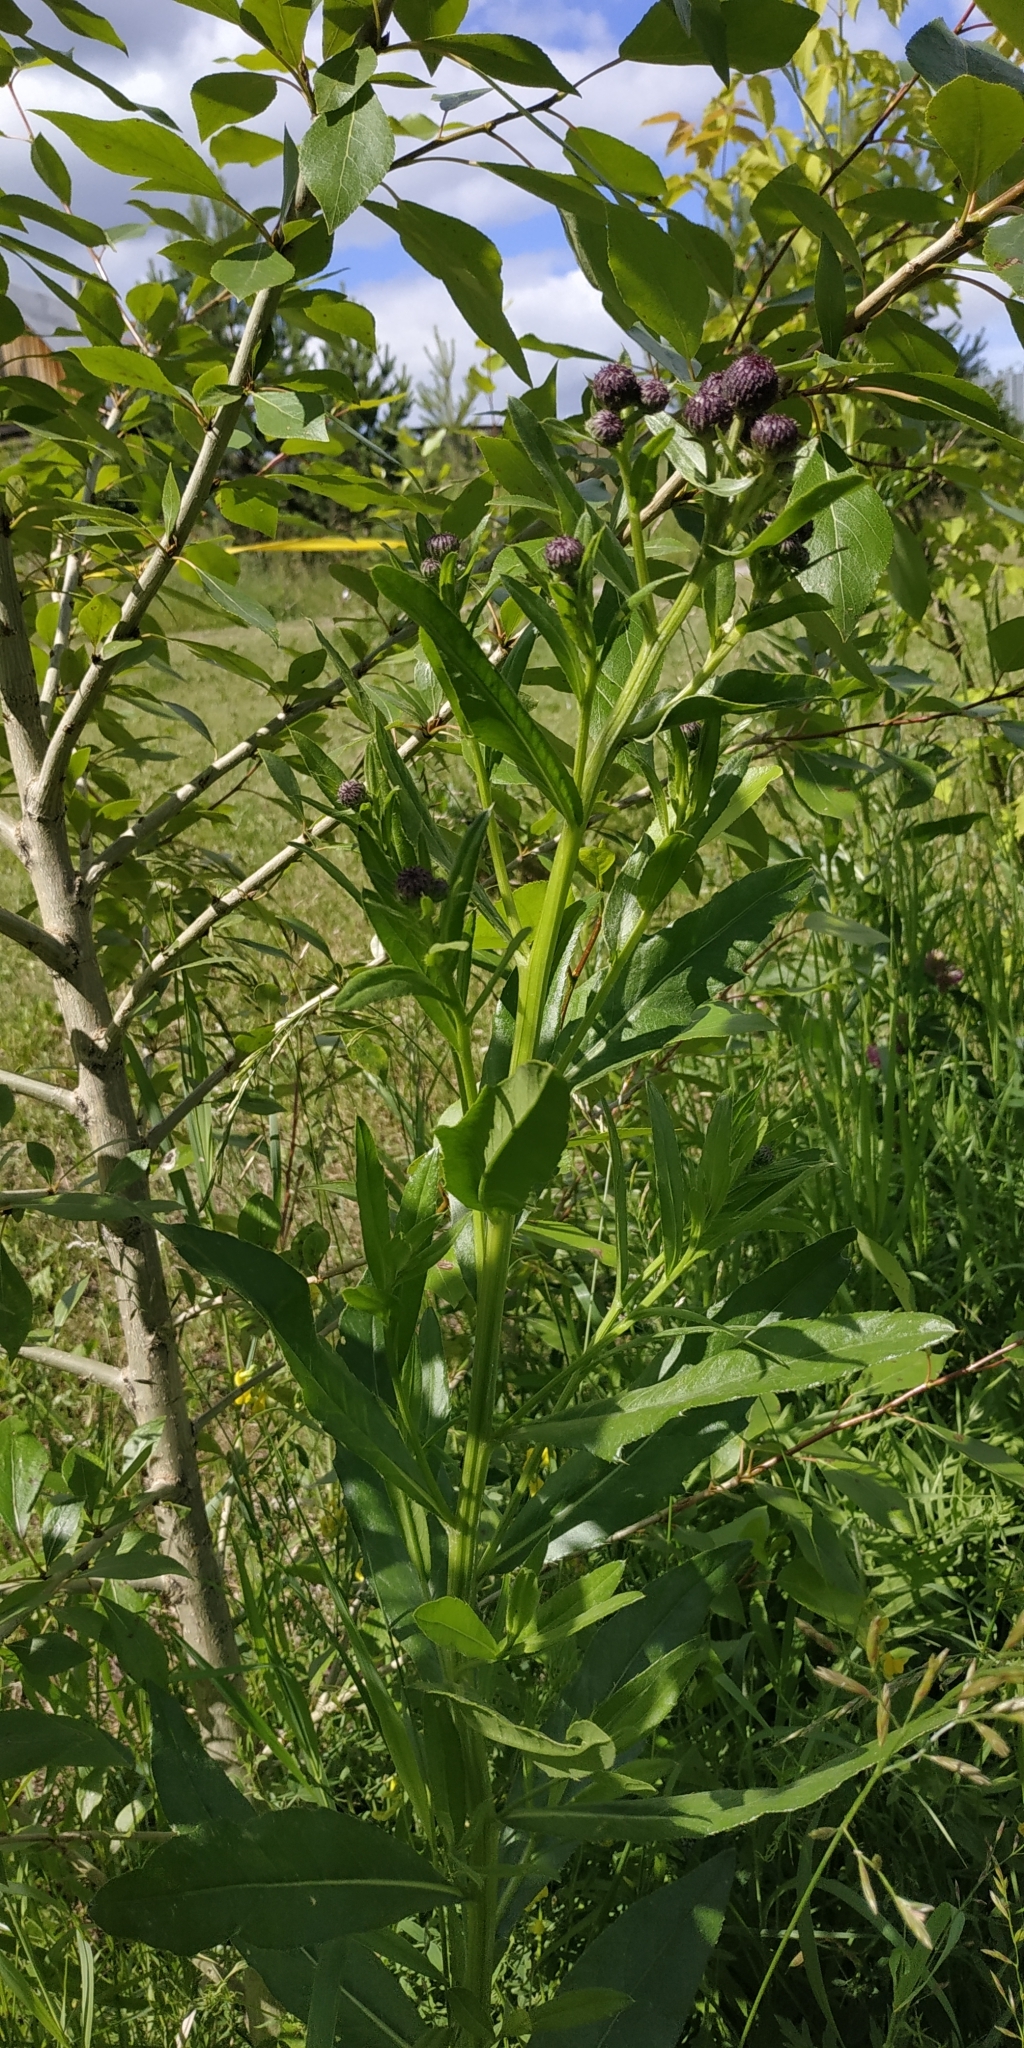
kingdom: Plantae
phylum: Tracheophyta
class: Magnoliopsida
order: Asterales
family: Asteraceae
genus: Cirsium
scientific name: Cirsium arvense
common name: Creeping thistle
